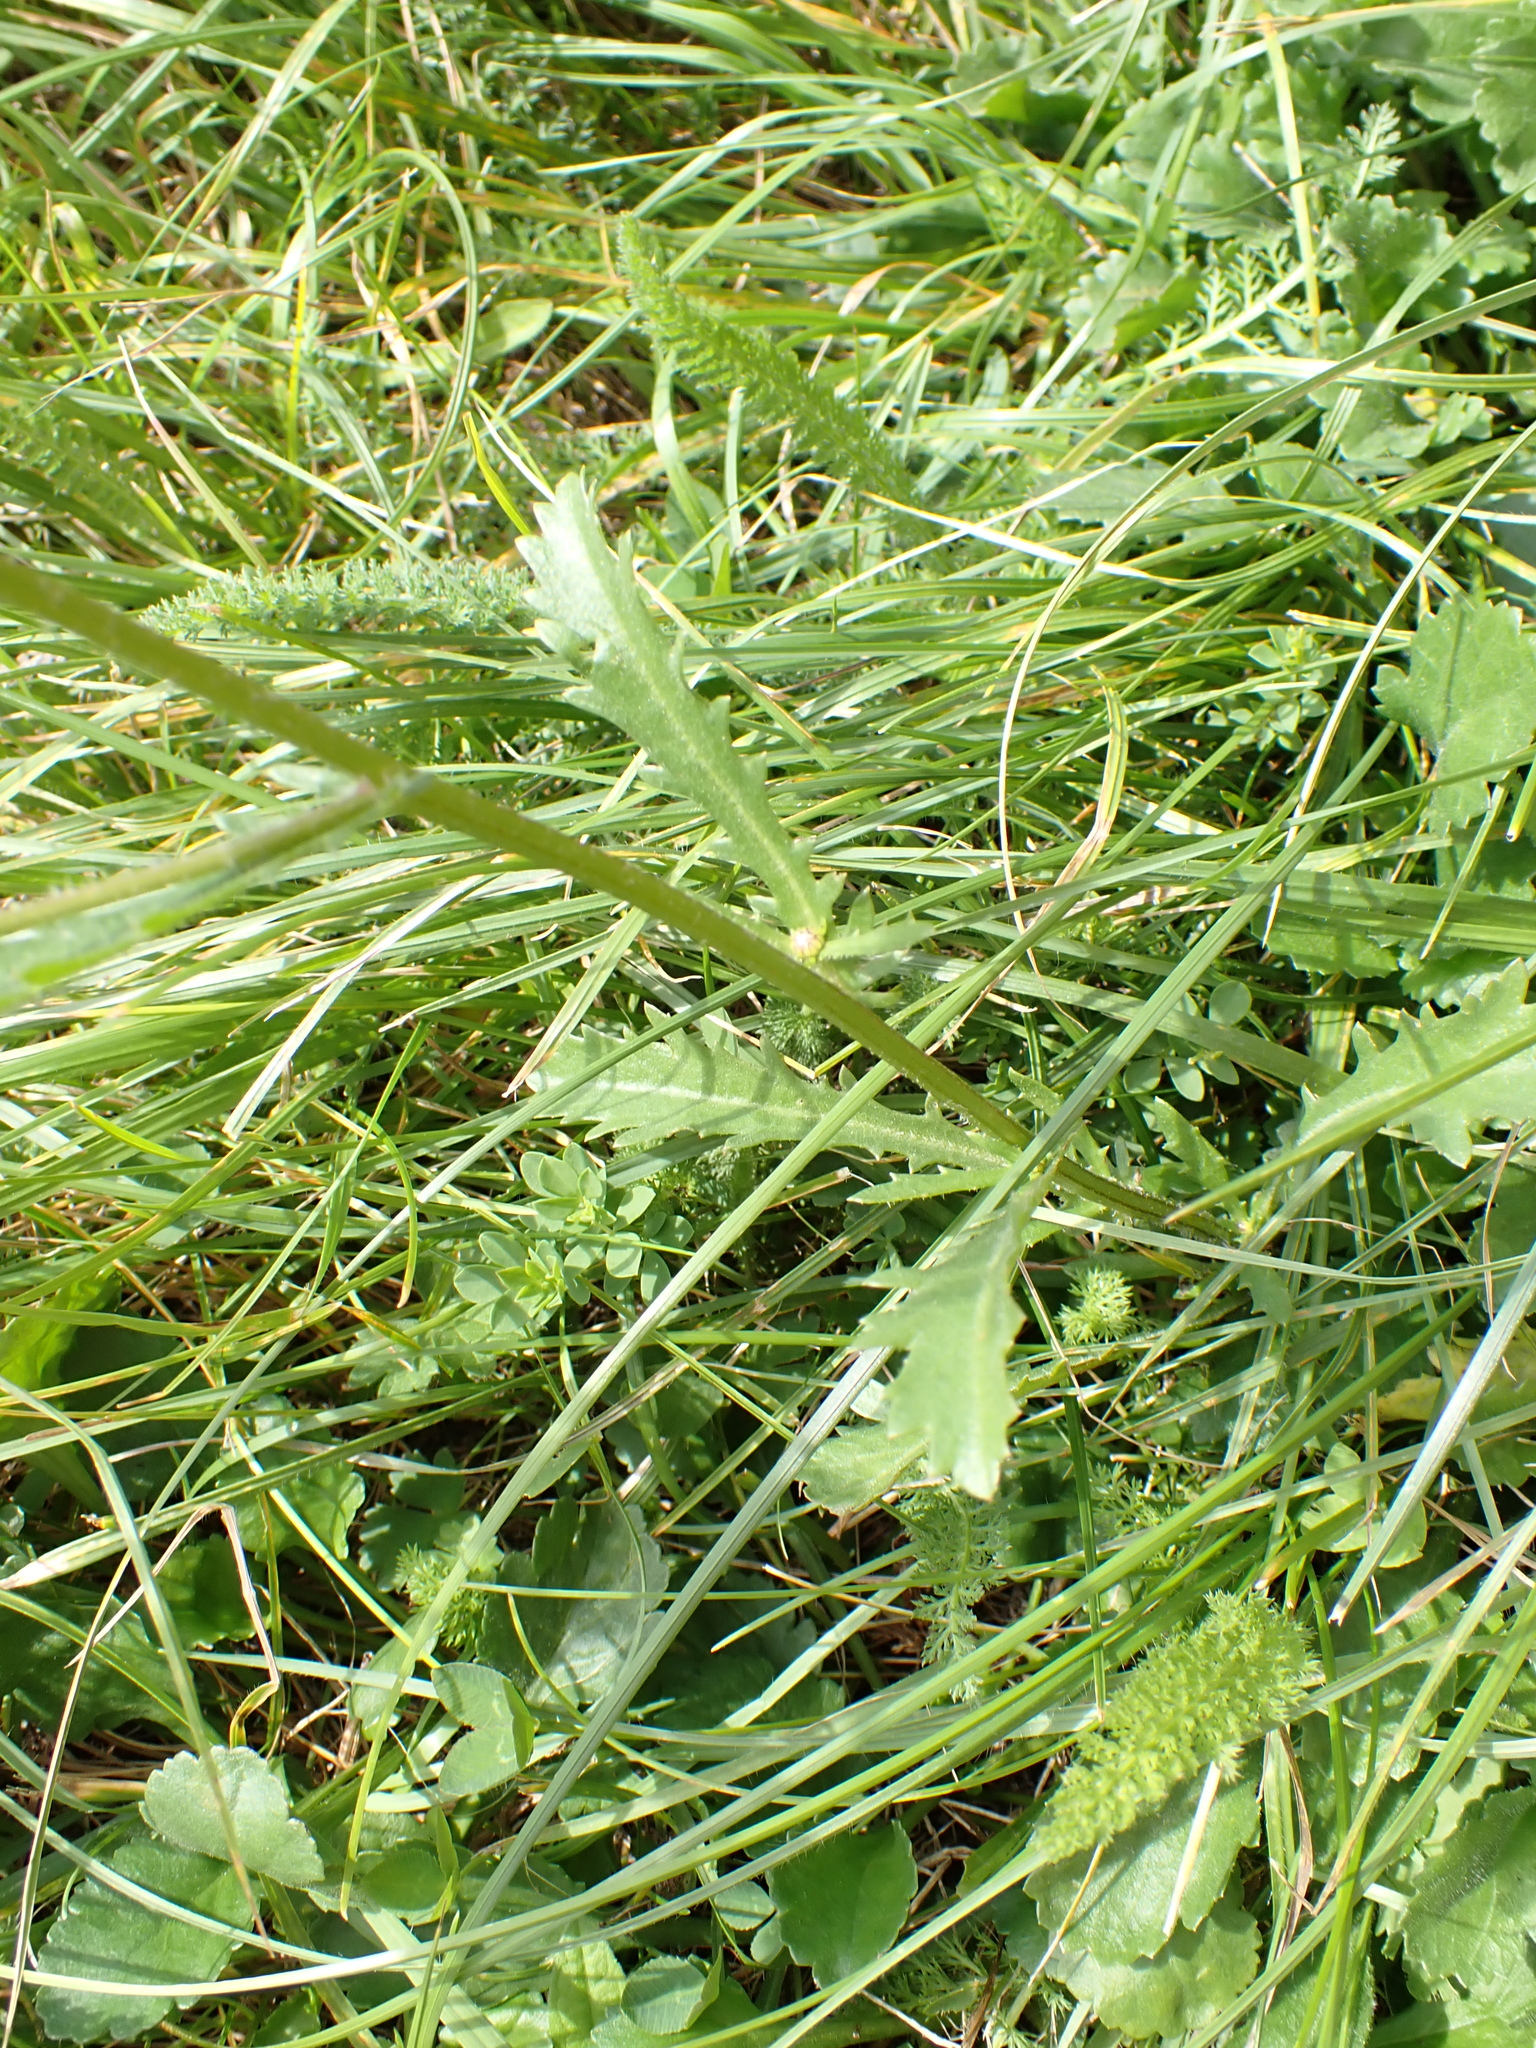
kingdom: Plantae
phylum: Tracheophyta
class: Magnoliopsida
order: Asterales
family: Asteraceae
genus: Leucanthemum
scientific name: Leucanthemum vulgare
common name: Oxeye daisy
